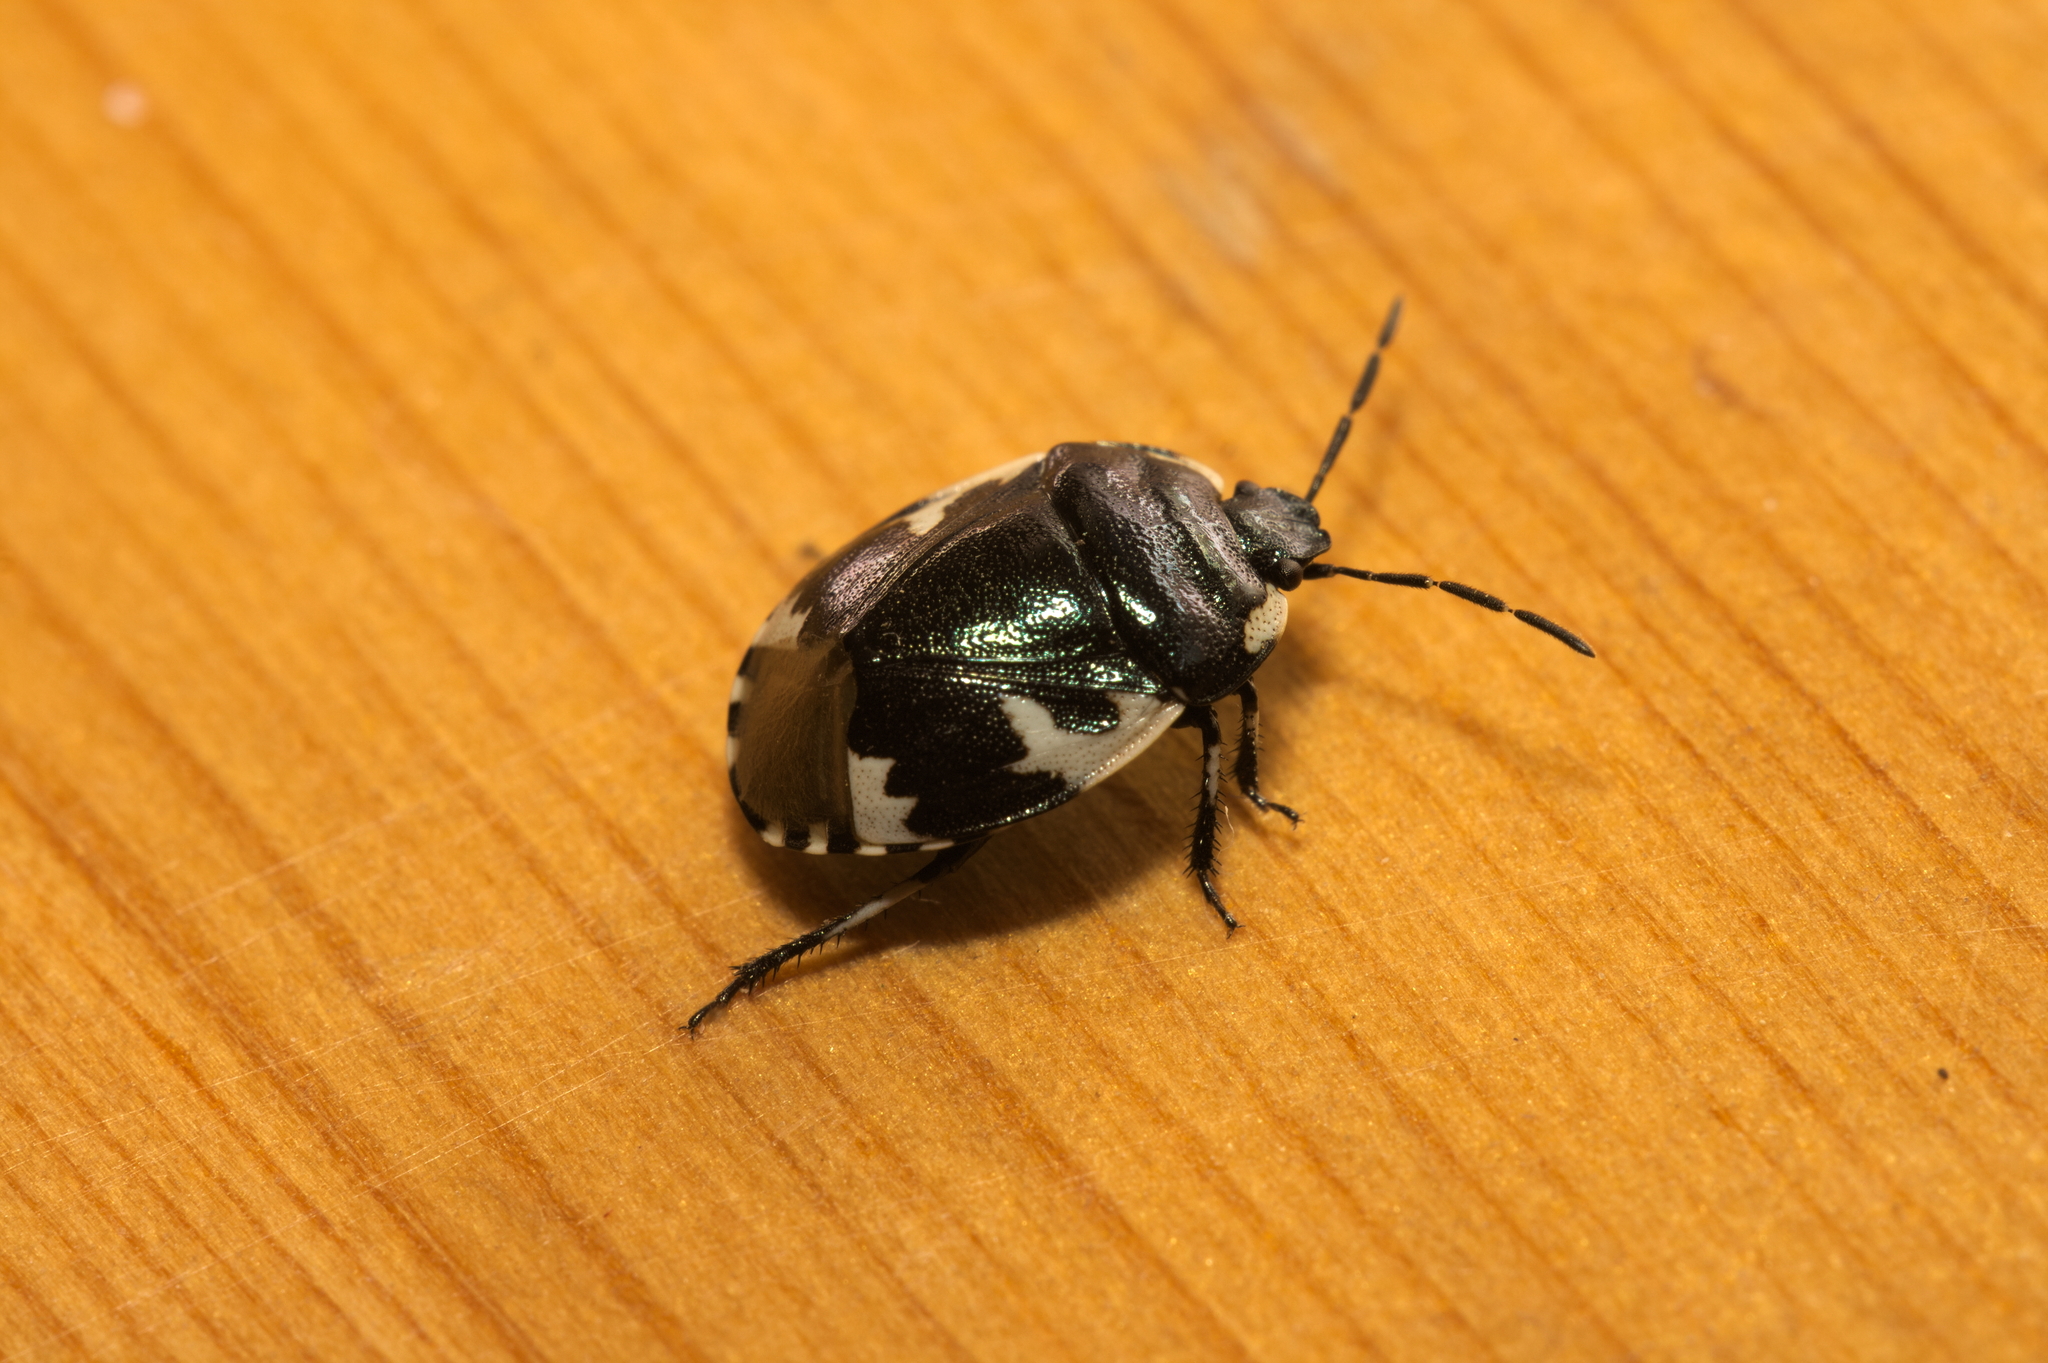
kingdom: Animalia
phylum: Arthropoda
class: Insecta
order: Hemiptera
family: Cydnidae
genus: Tritomegas
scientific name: Tritomegas bicolor
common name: Pied shieldbug
